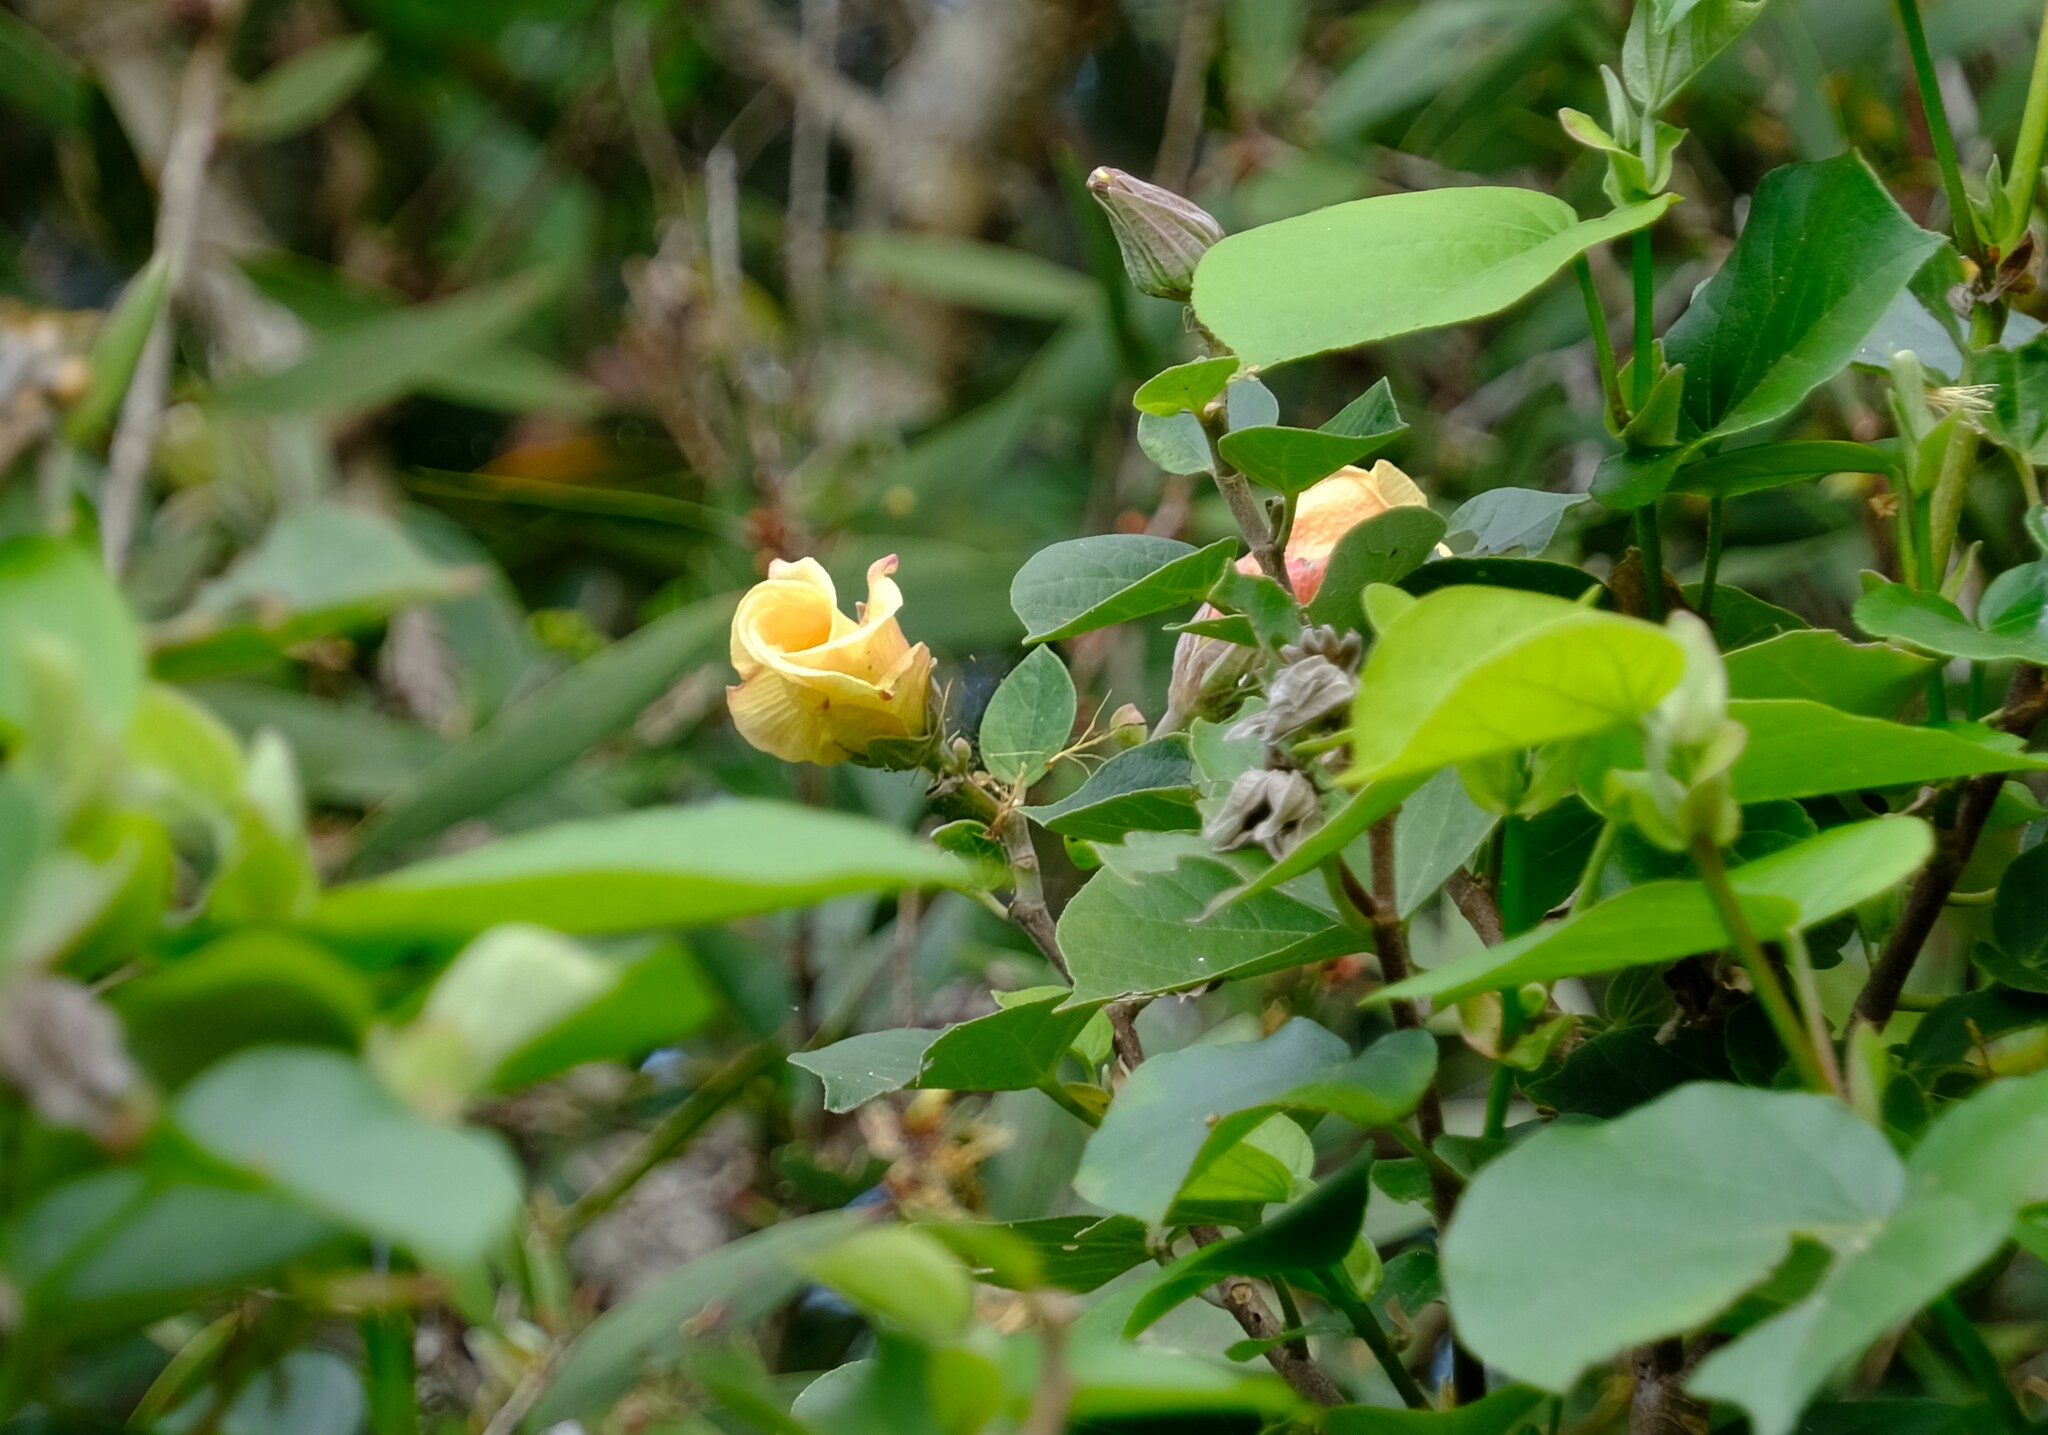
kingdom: Plantae
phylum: Tracheophyta
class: Magnoliopsida
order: Malvales
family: Malvaceae
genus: Talipariti
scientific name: Talipariti tiliaceum
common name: Sea hibiscus
